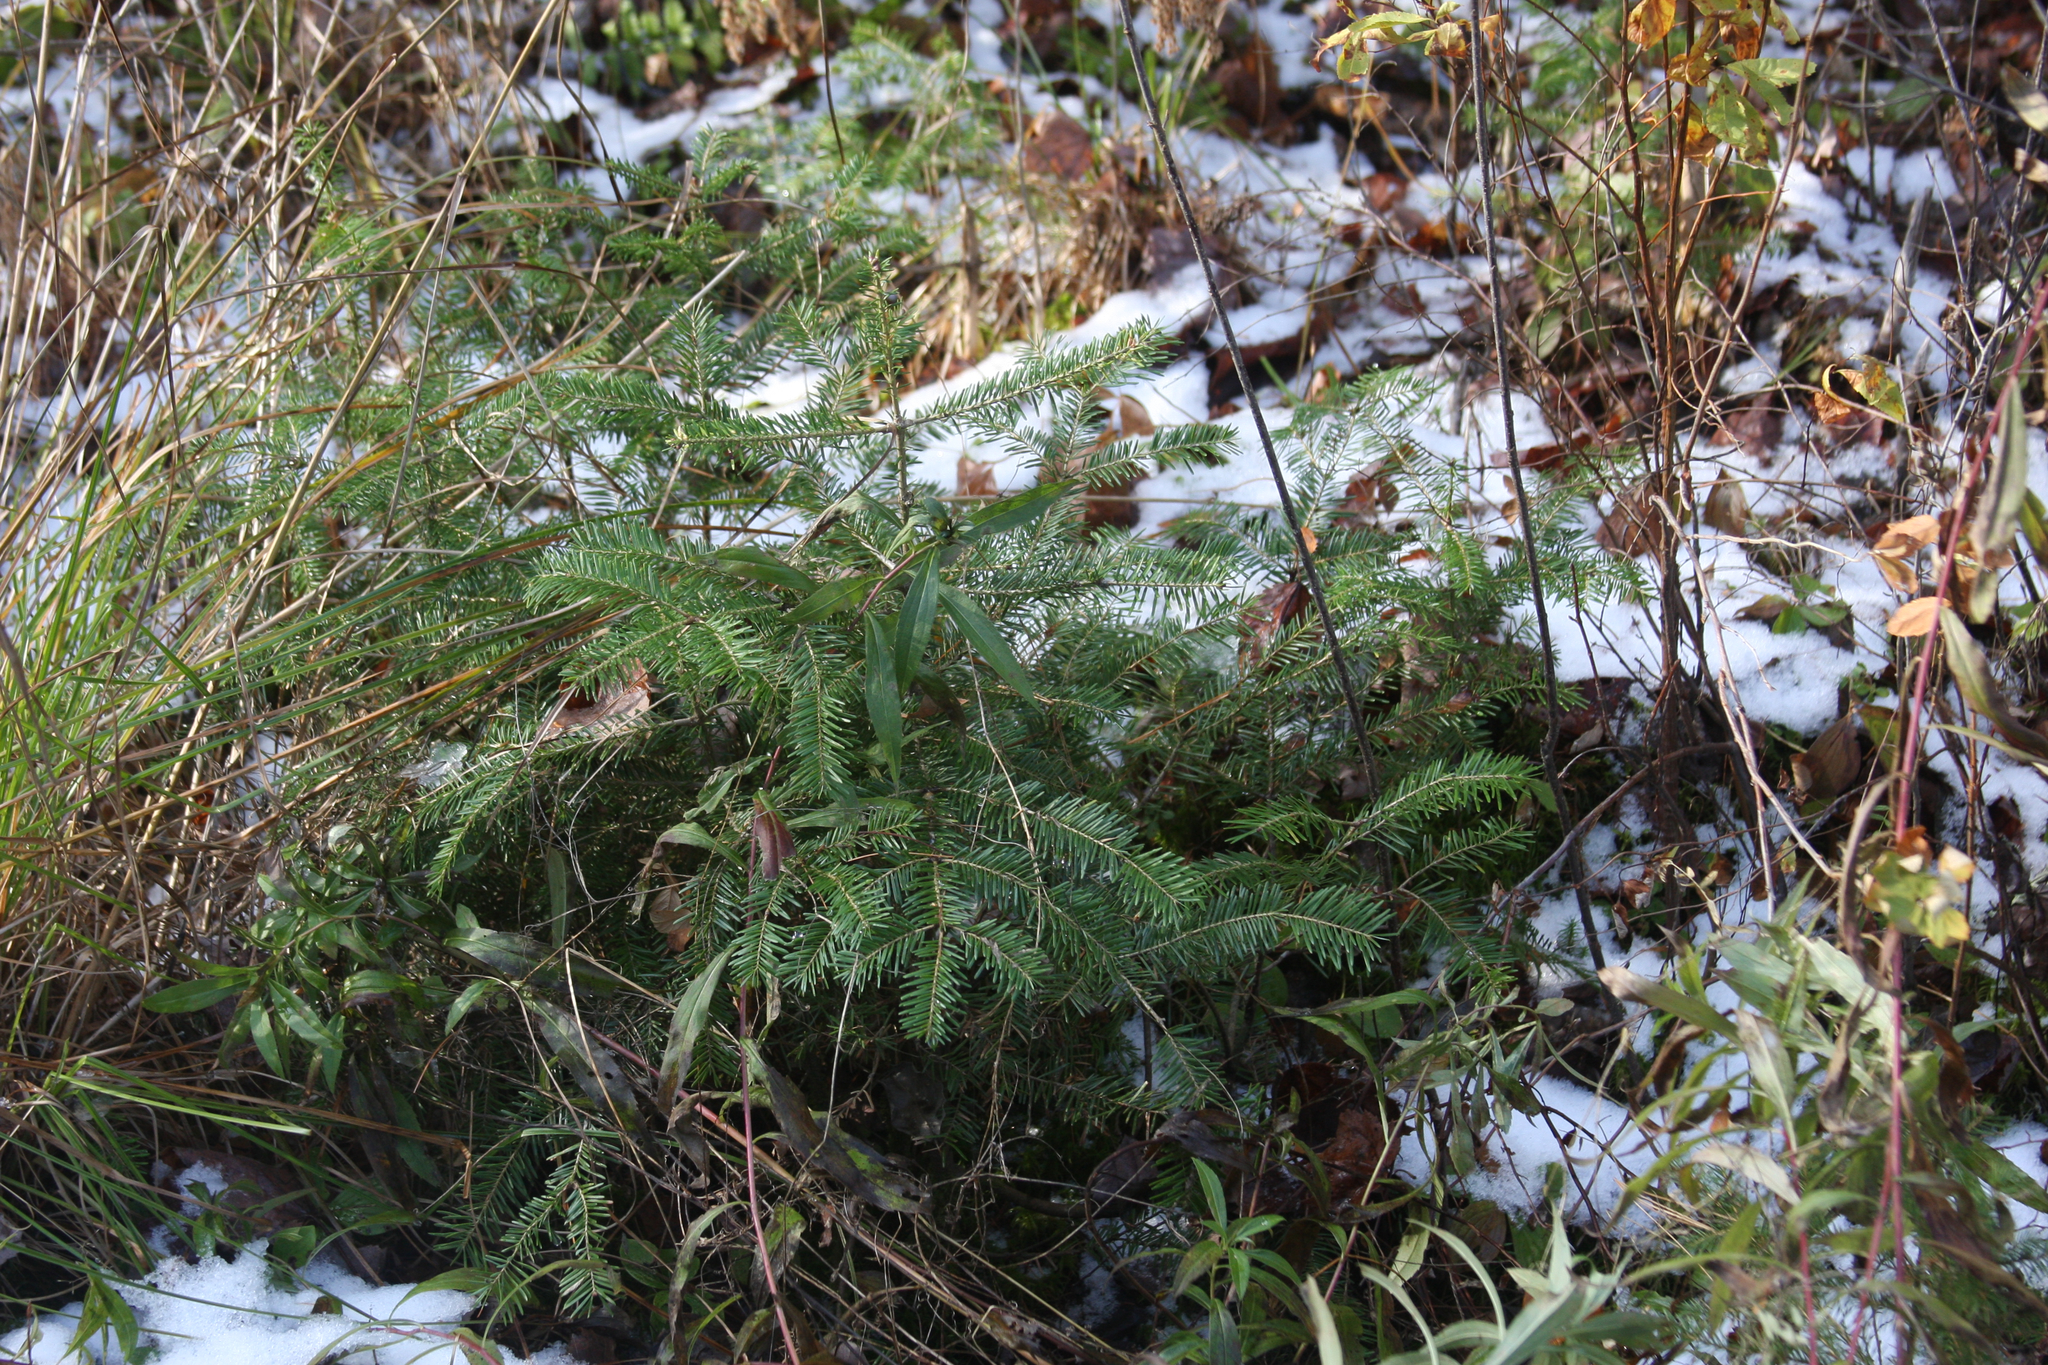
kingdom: Plantae
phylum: Tracheophyta
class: Pinopsida
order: Pinales
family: Pinaceae
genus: Abies
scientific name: Abies balsamea
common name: Balsam fir
